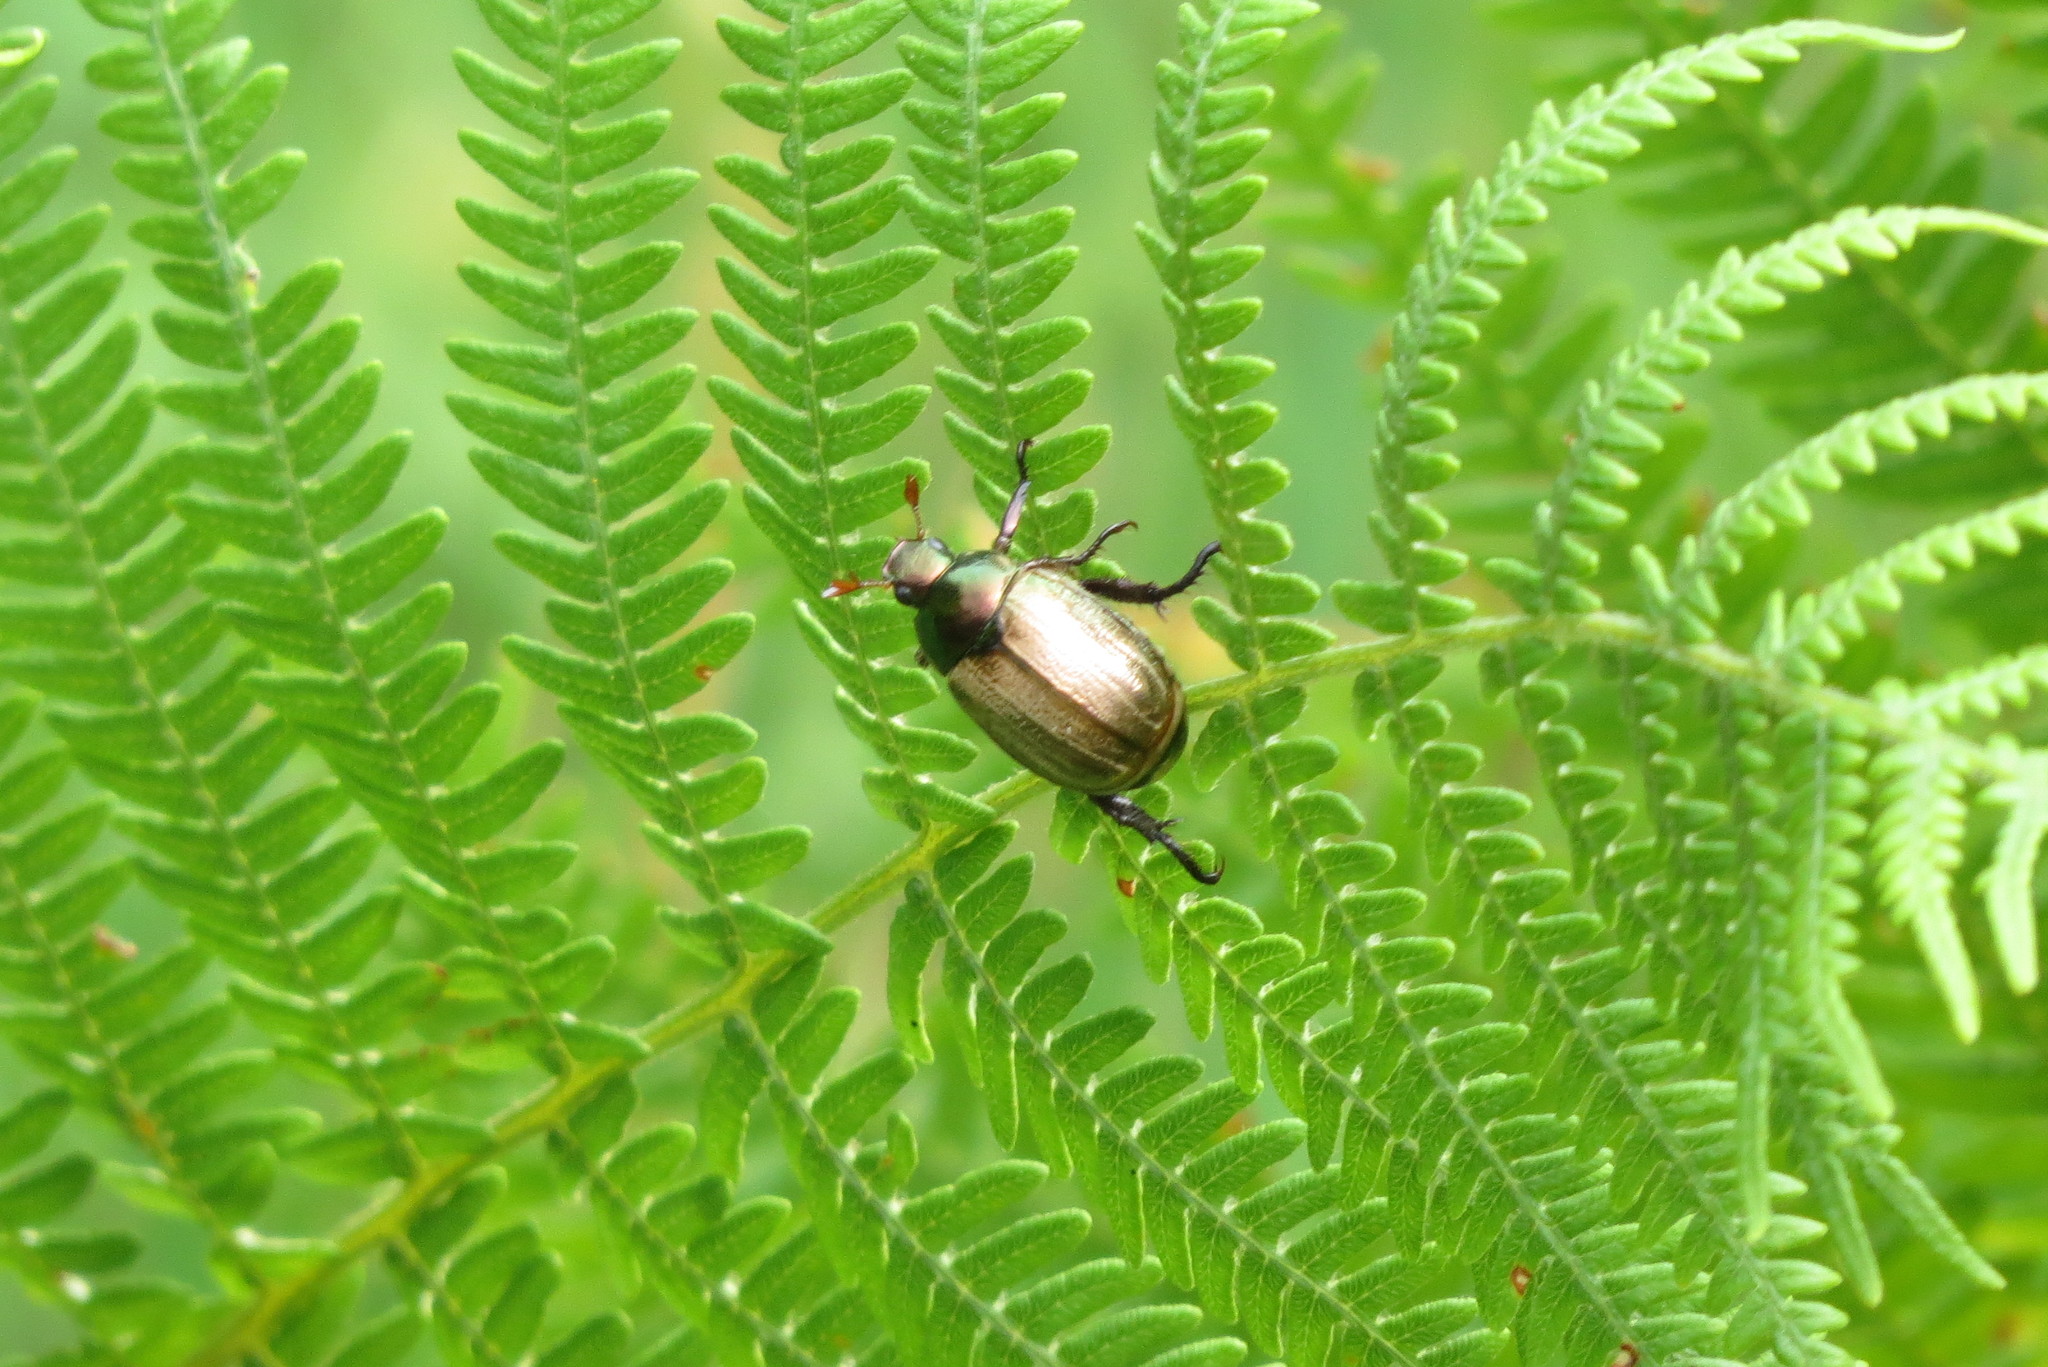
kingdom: Animalia
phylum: Arthropoda
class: Insecta
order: Coleoptera
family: Scarabaeidae
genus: Mimela
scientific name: Mimela junii
